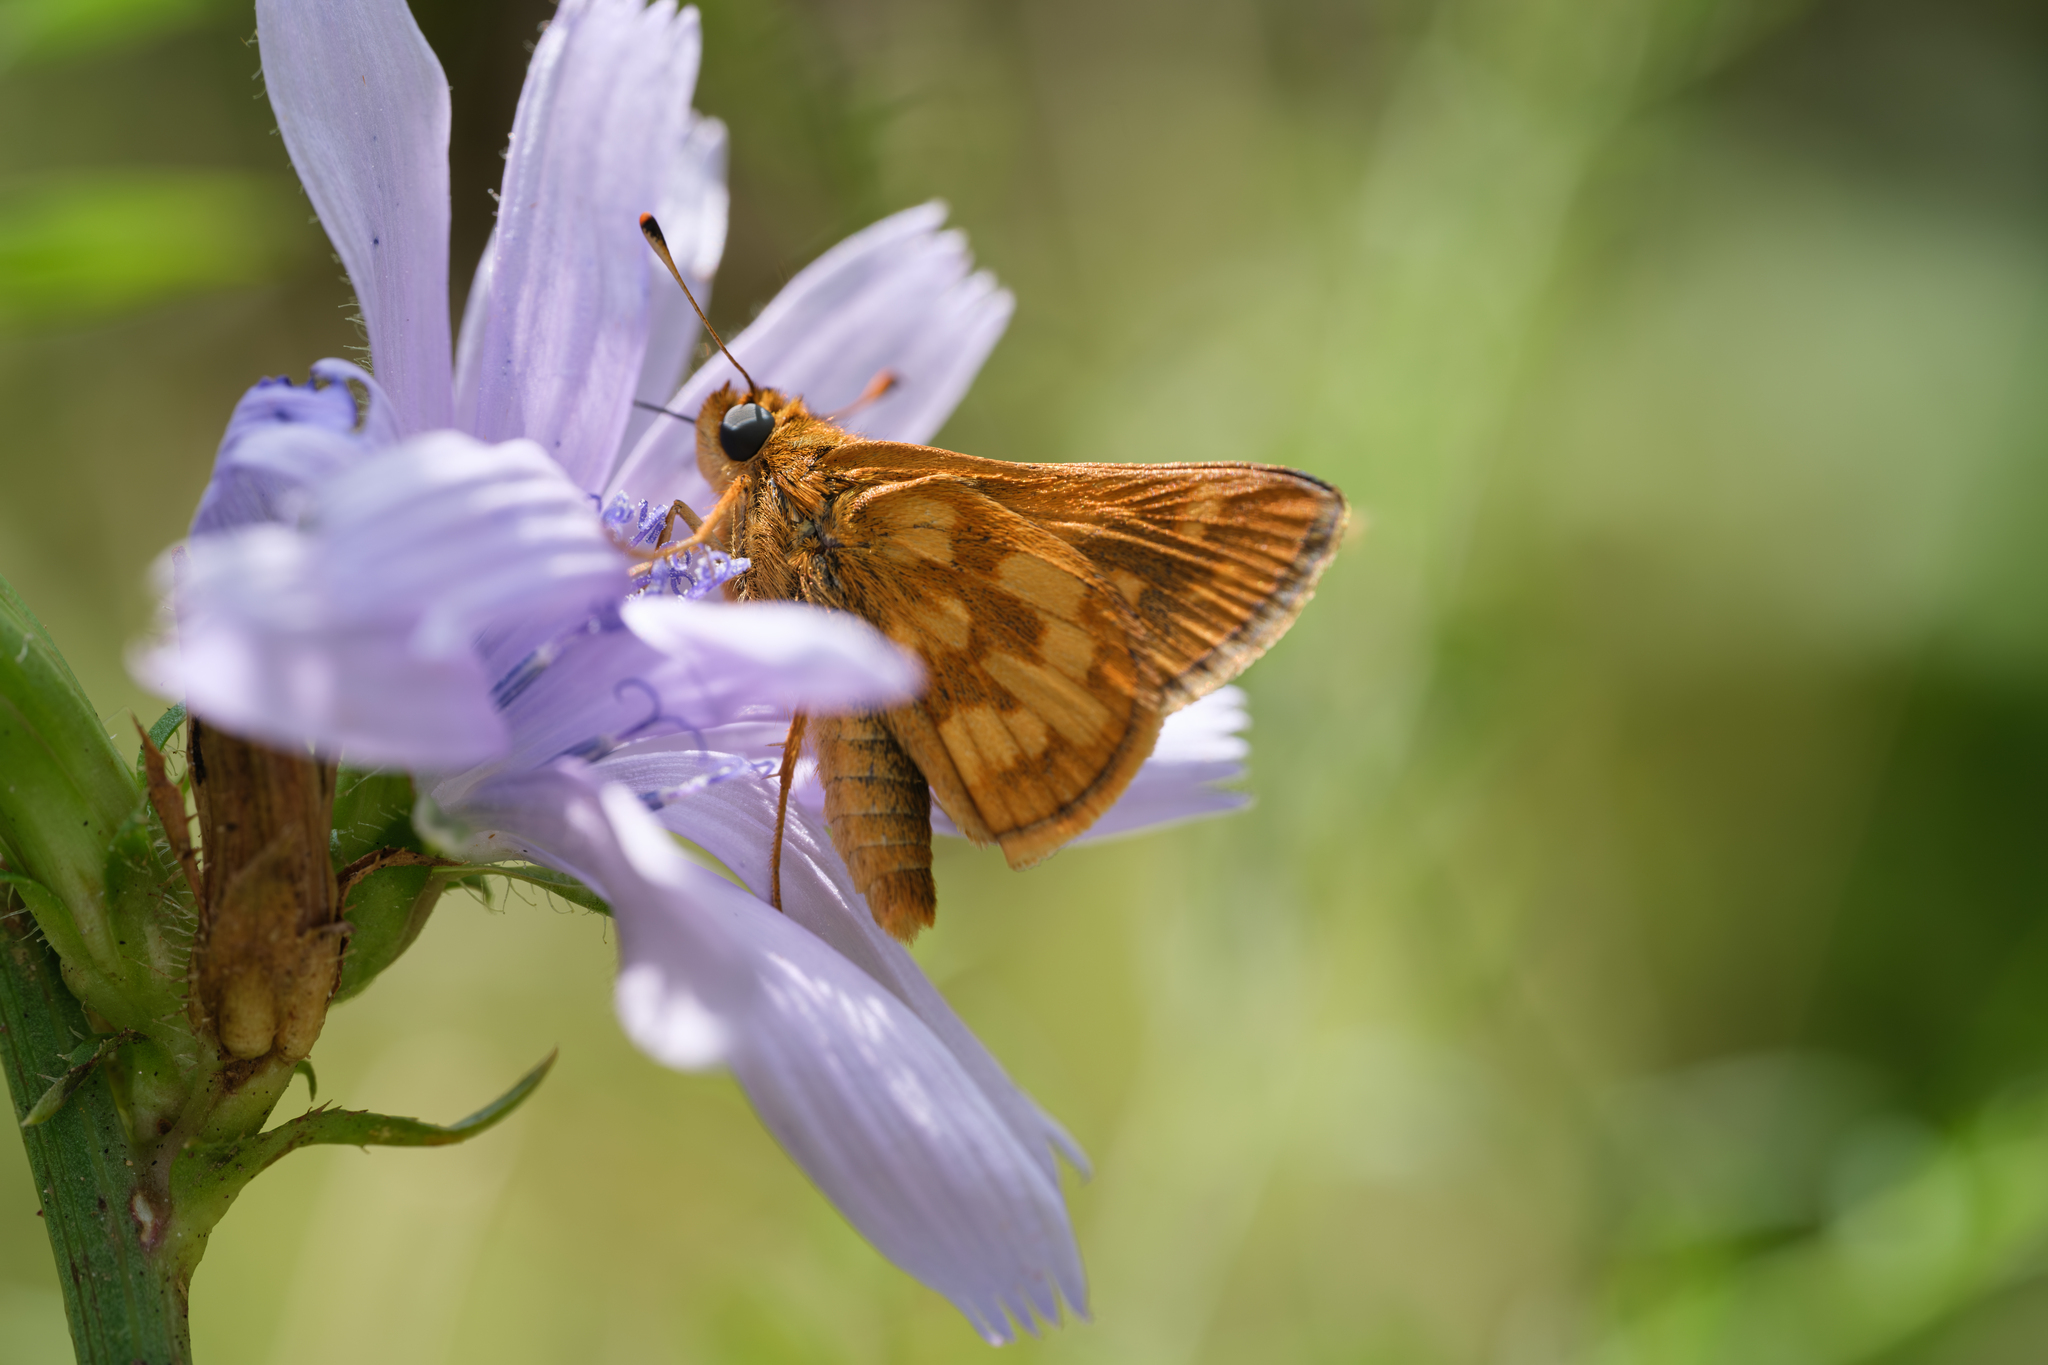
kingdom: Animalia
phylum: Arthropoda
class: Insecta
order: Lepidoptera
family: Hesperiidae
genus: Polites
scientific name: Polites coras
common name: Peck's skipper
